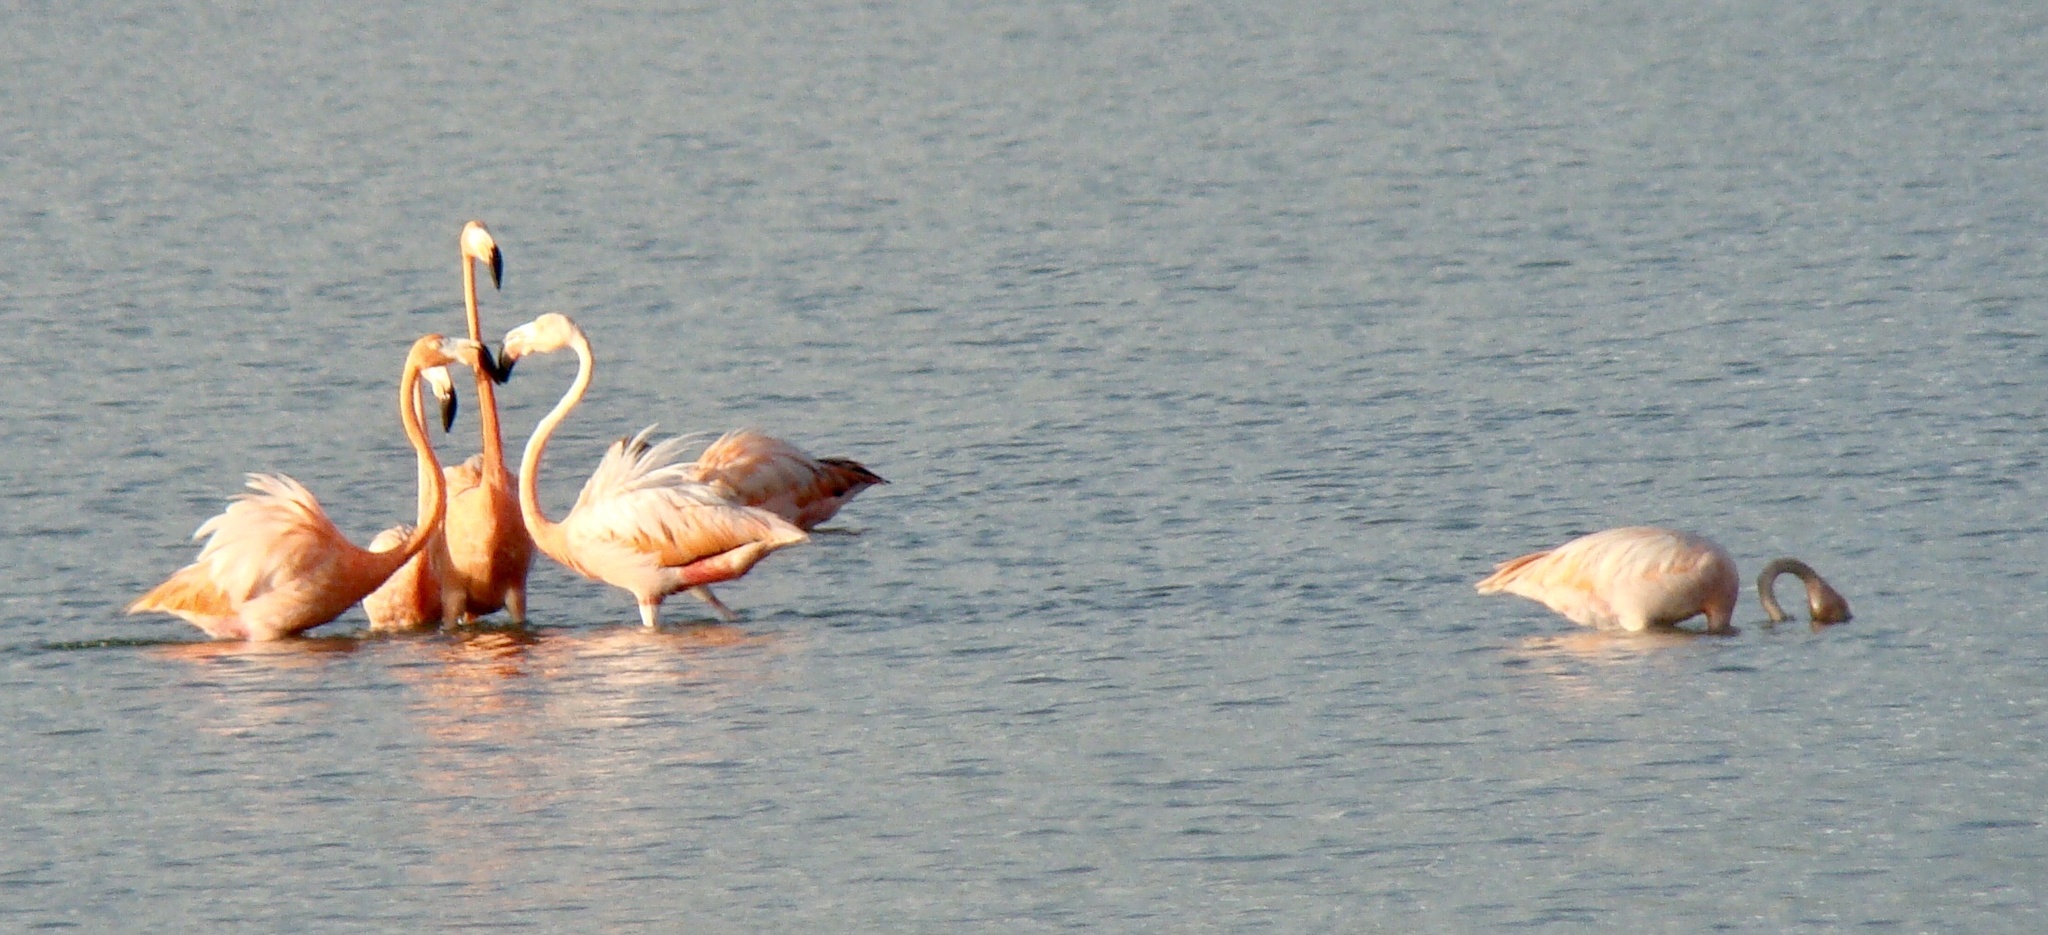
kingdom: Animalia
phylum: Chordata
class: Aves
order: Phoenicopteriformes
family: Phoenicopteridae
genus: Phoenicopterus
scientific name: Phoenicopterus ruber
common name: American flamingo
